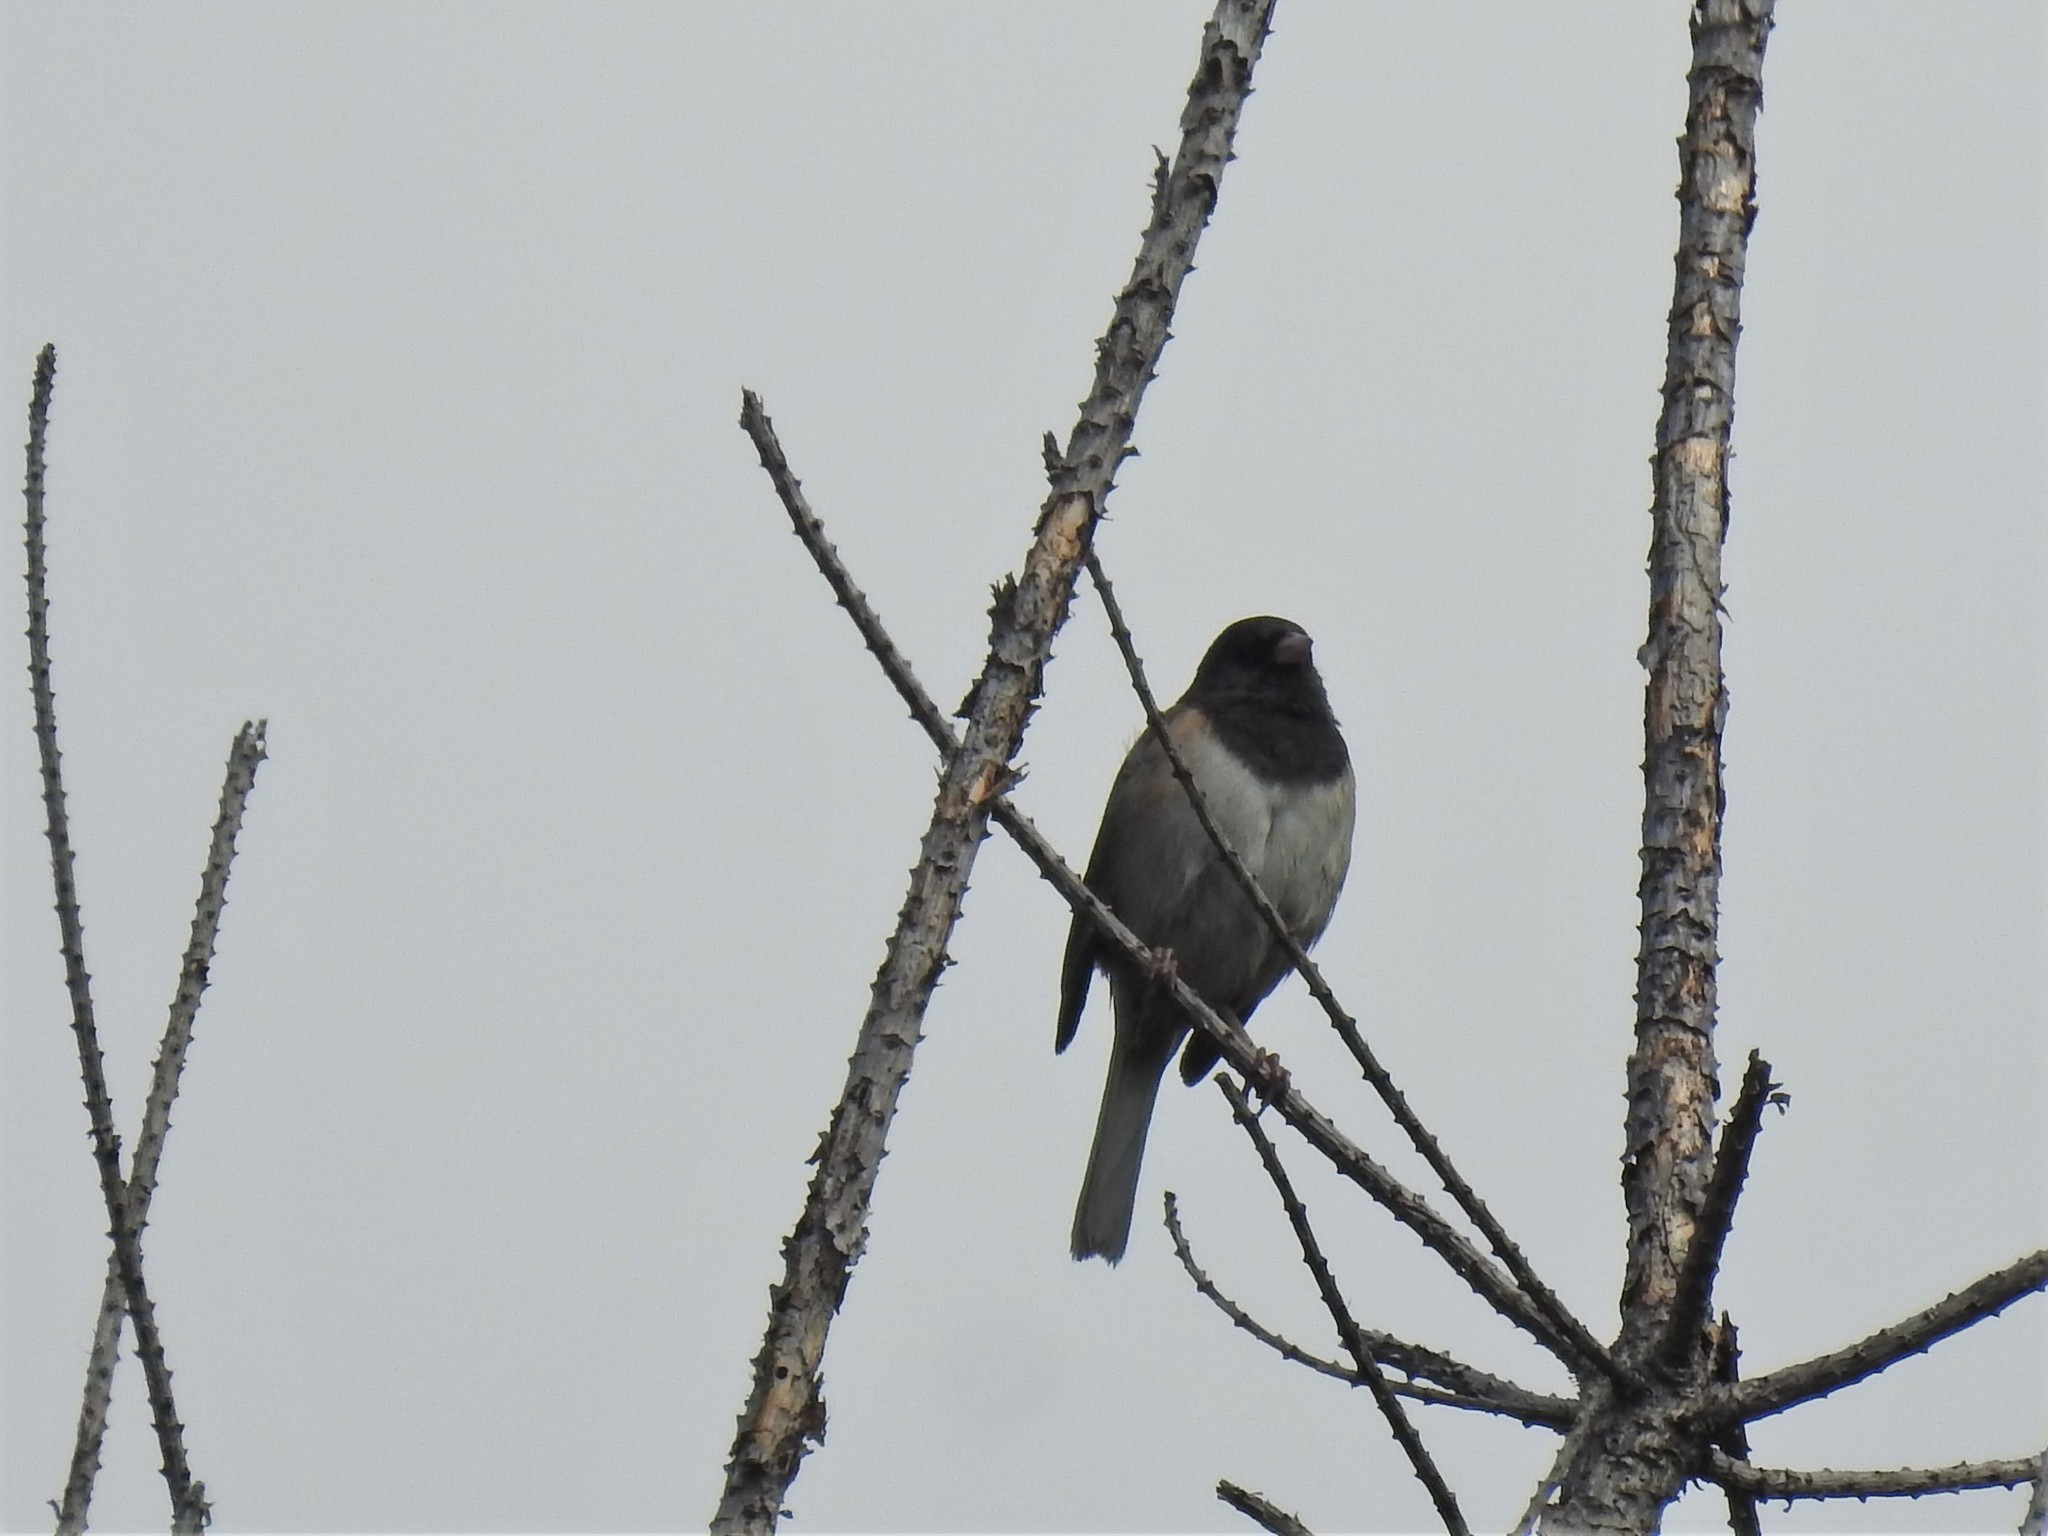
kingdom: Animalia
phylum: Chordata
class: Aves
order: Passeriformes
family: Passerellidae
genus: Junco
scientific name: Junco hyemalis
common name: Dark-eyed junco
